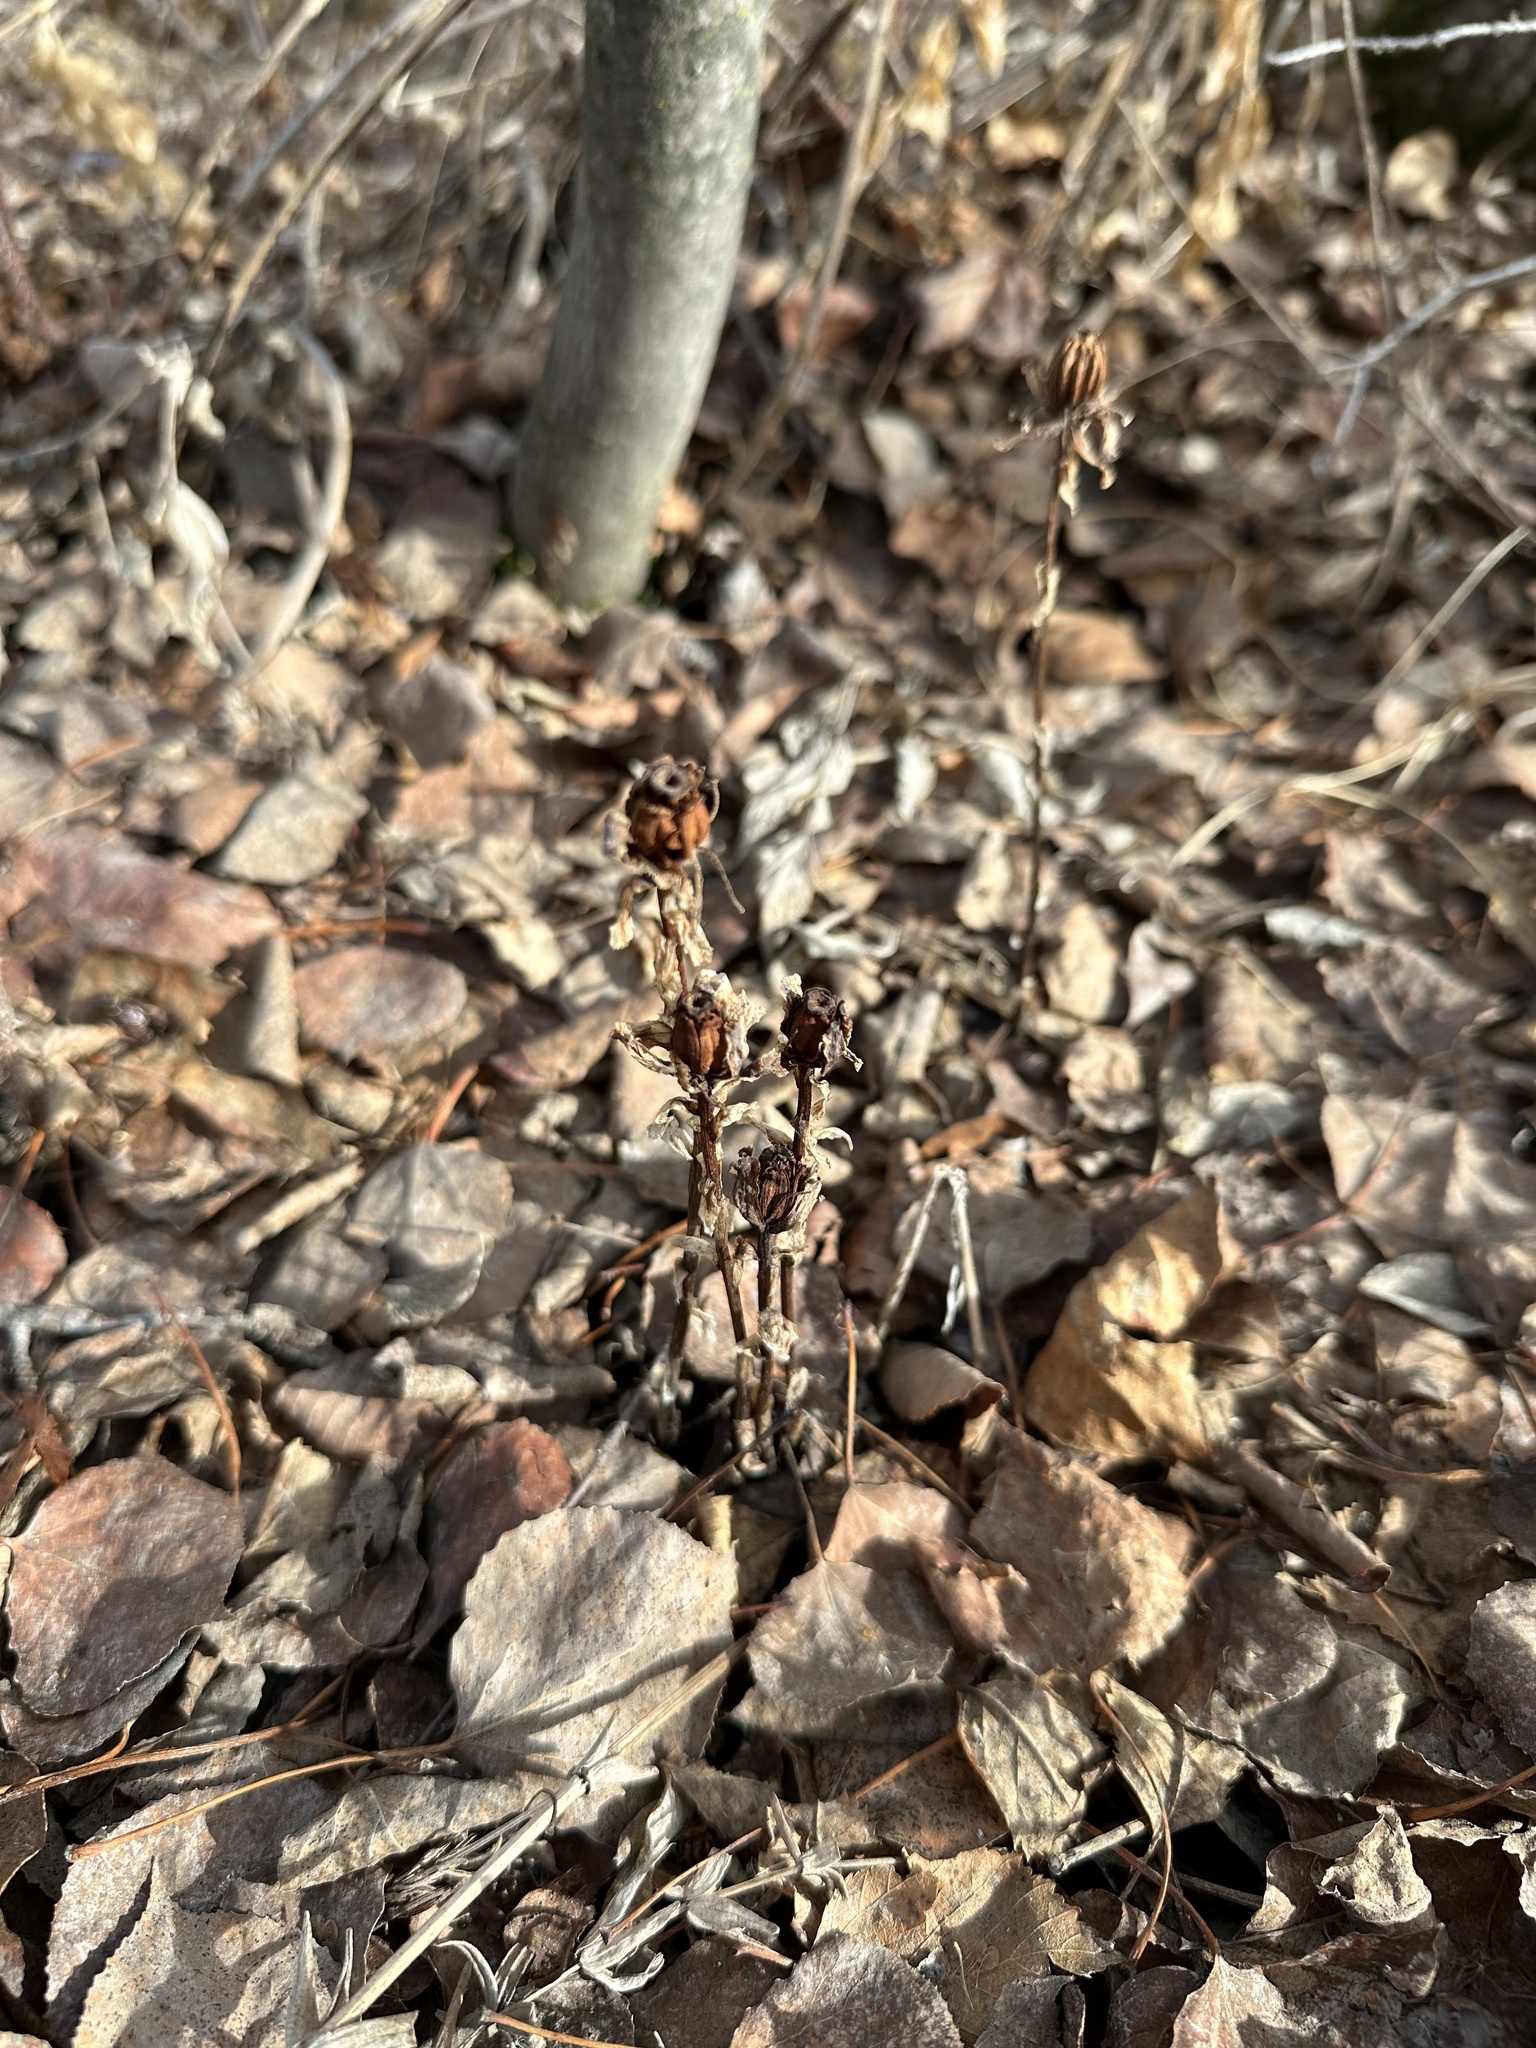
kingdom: Plantae
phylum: Tracheophyta
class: Magnoliopsida
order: Ericales
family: Ericaceae
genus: Monotropa
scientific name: Monotropa uniflora
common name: Convulsion root
